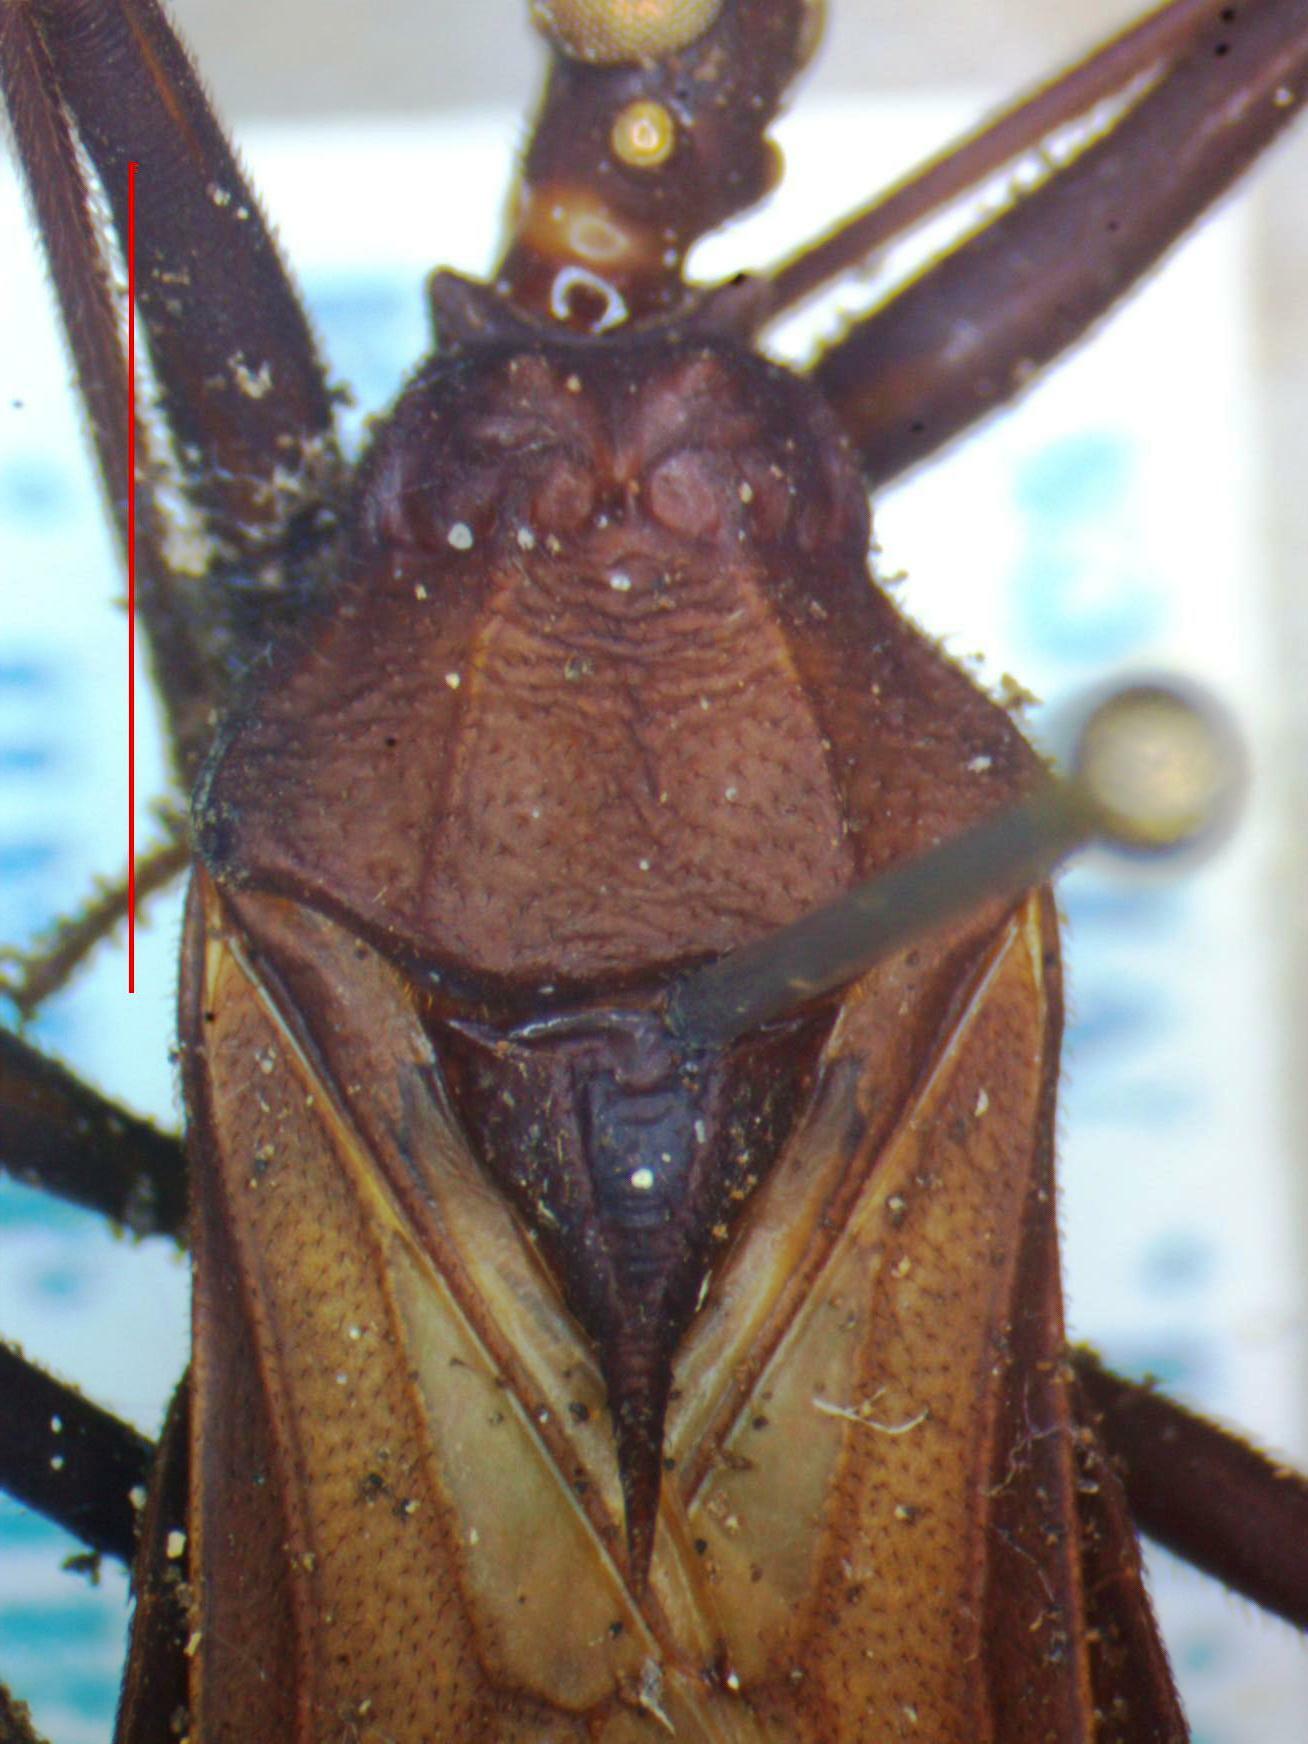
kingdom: Animalia
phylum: Arthropoda
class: Insecta
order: Hemiptera
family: Reduviidae
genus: Eratyrus
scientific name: Eratyrus cuspidatus
